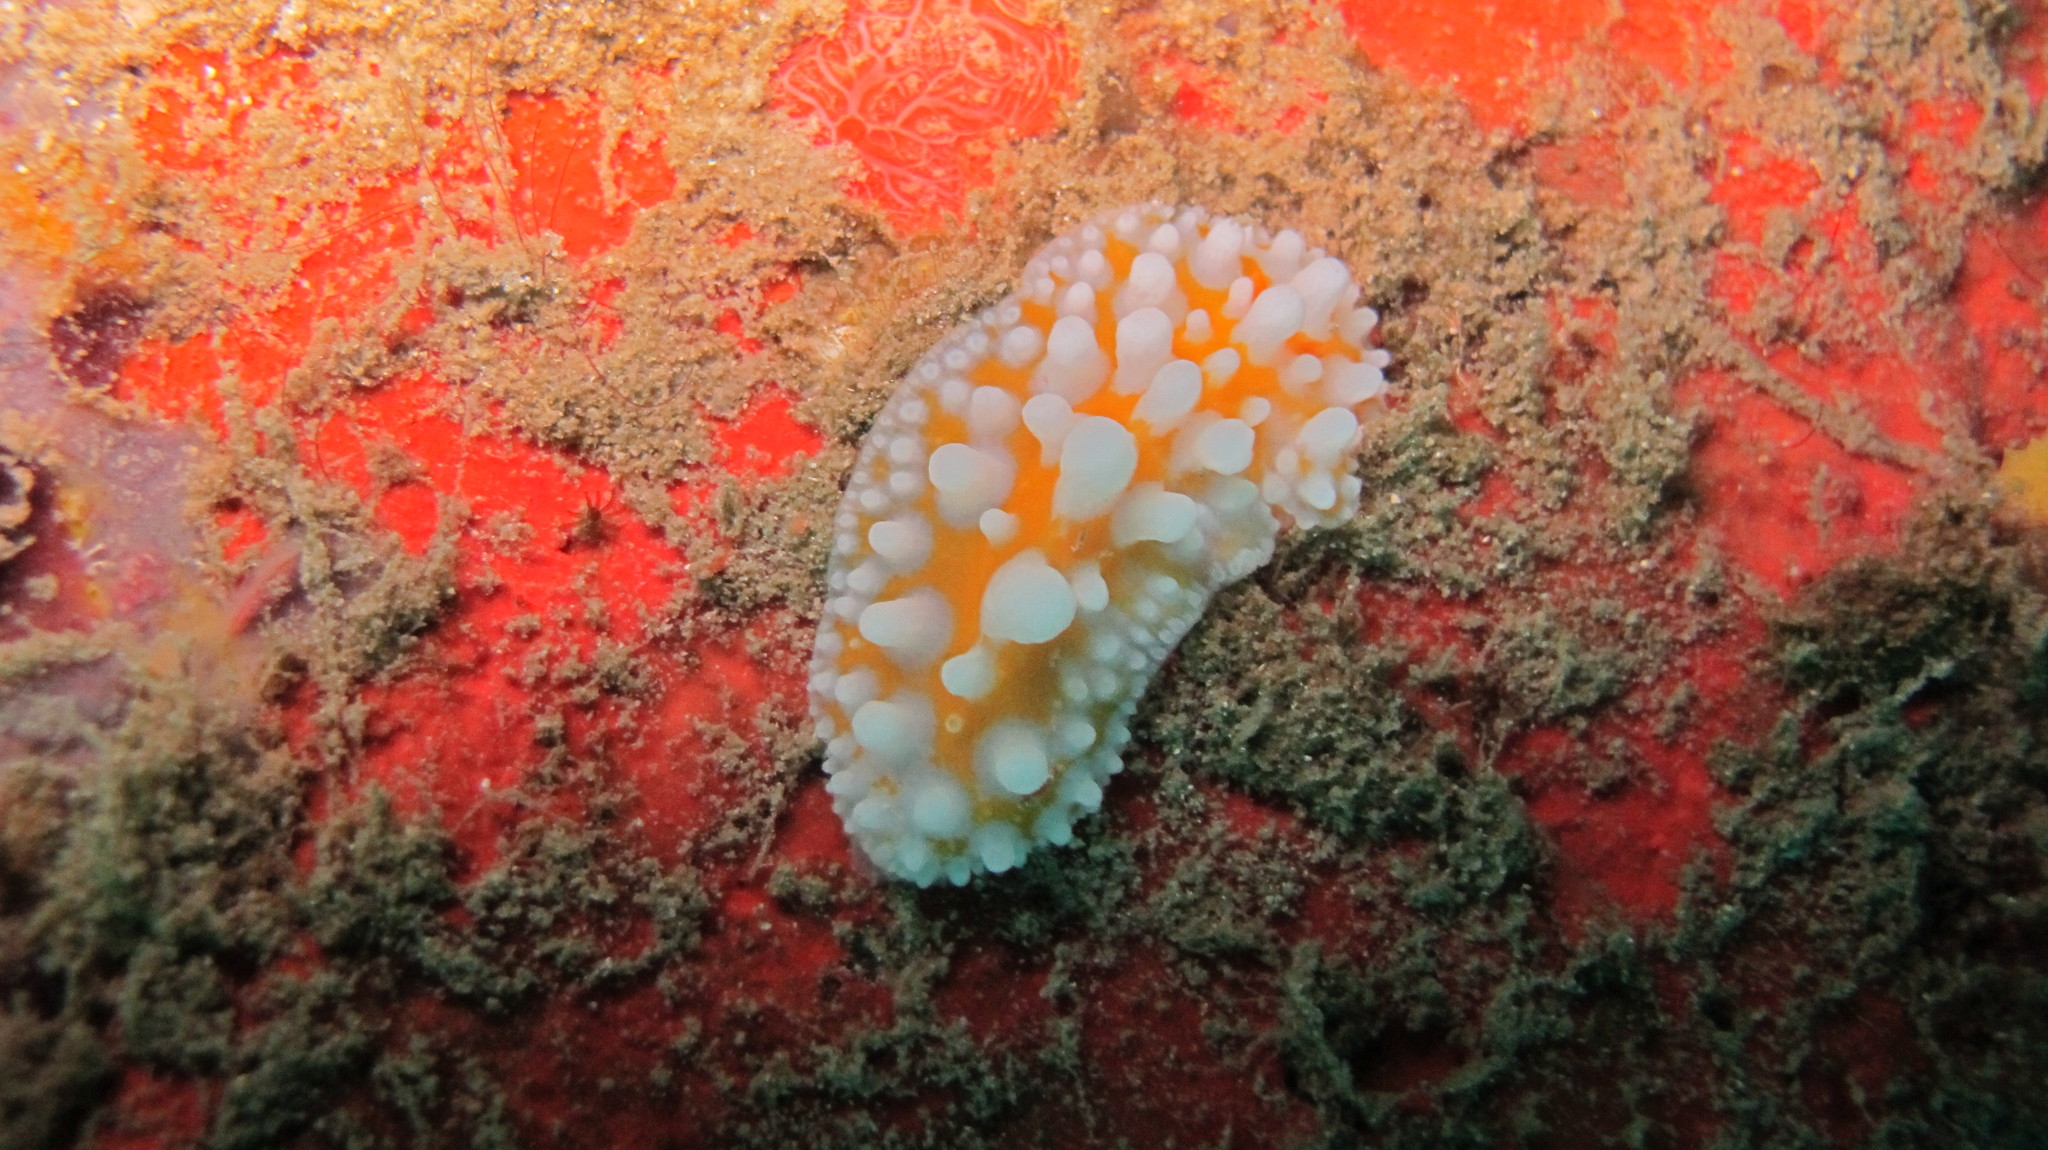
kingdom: Animalia
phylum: Mollusca
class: Gastropoda
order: Nudibranchia
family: Phyllidiidae
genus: Phyllidia
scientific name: Phyllidia ocellata
